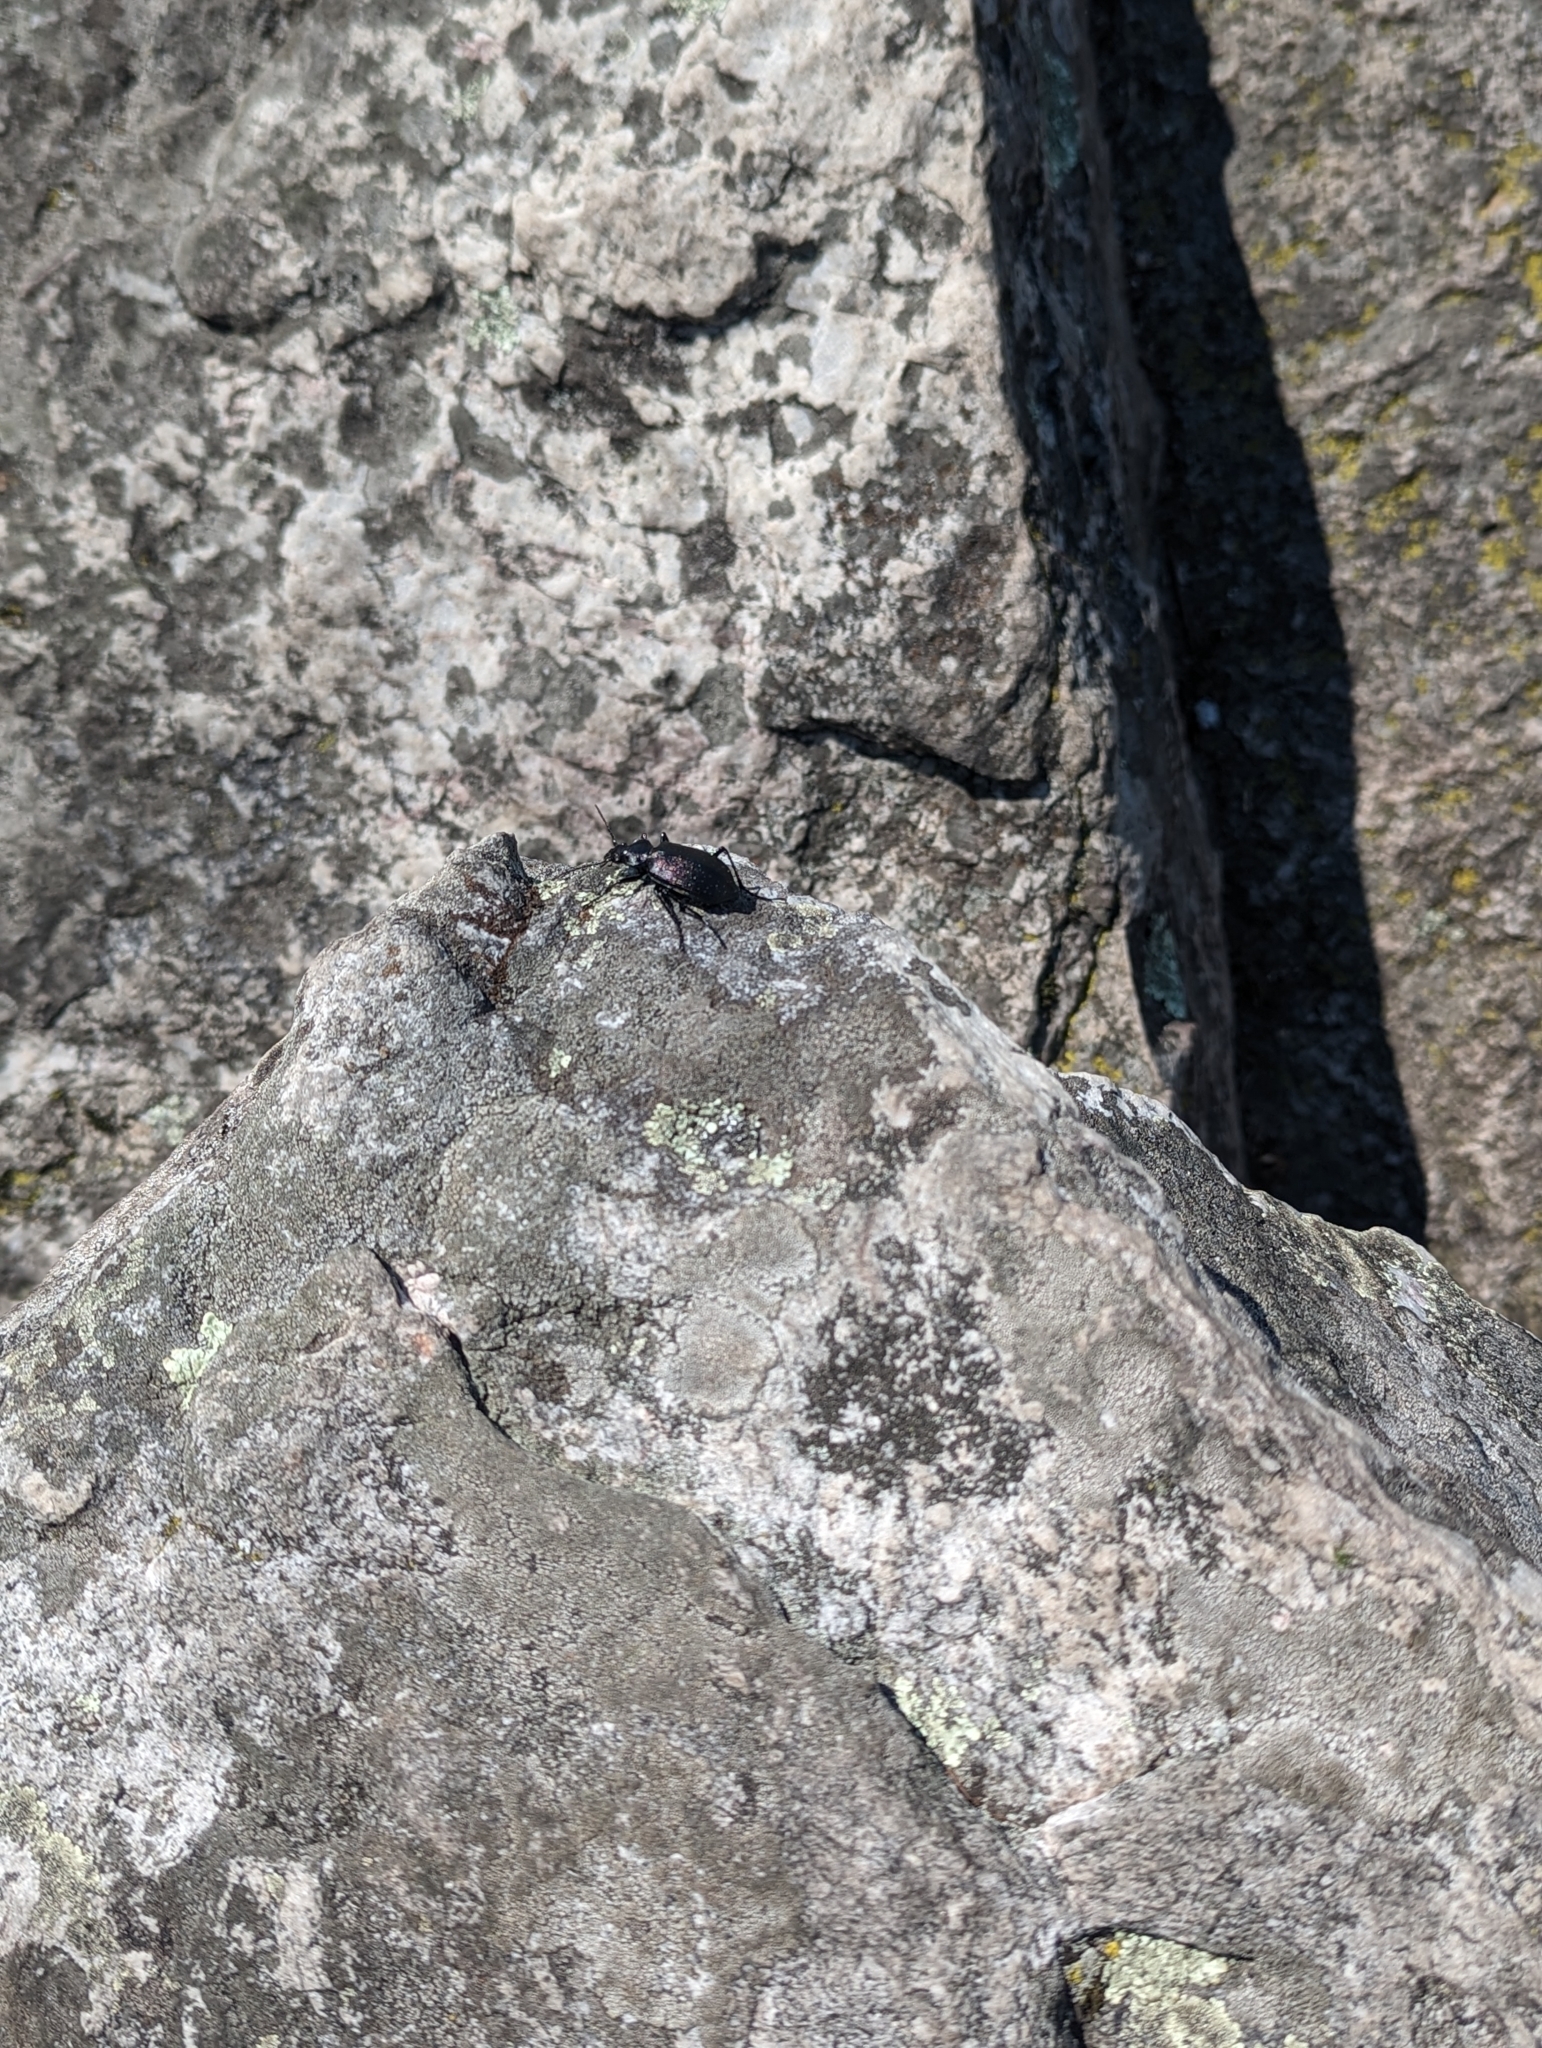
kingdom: Animalia
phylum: Arthropoda
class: Insecta
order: Coleoptera
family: Carabidae
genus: Calosoma
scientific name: Calosoma frigidum
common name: Cold-country caterpillar hunter
